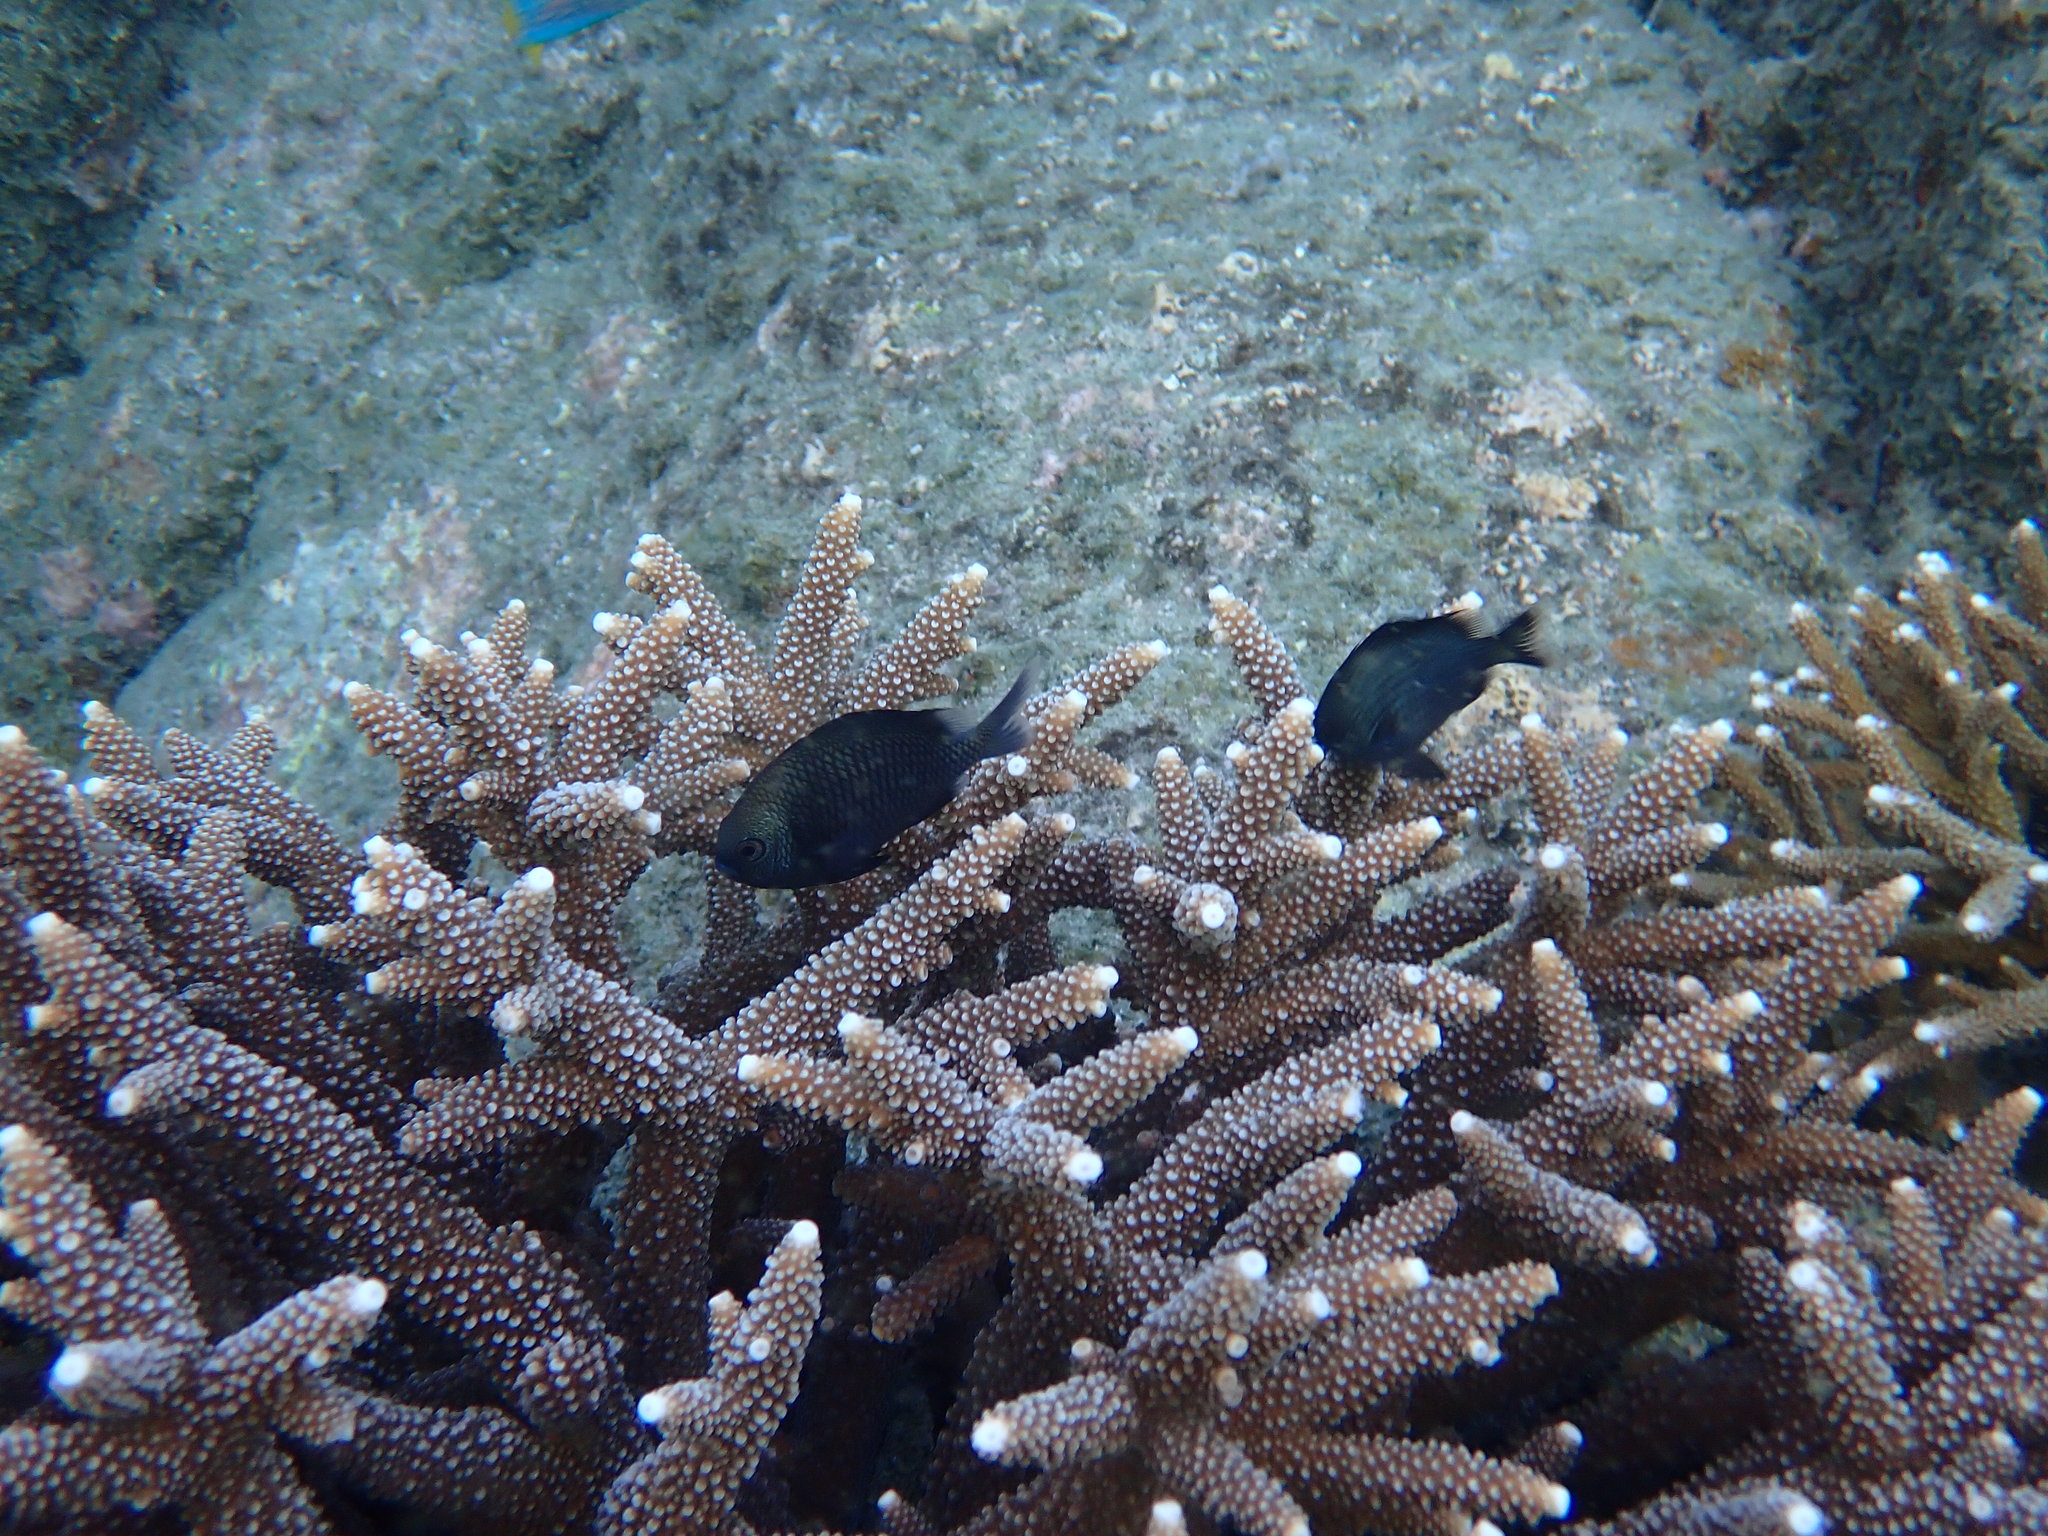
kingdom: Animalia
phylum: Chordata
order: Perciformes
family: Pomacentridae
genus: Dascyllus
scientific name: Dascyllus reticulatus
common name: Reticulated dascyllus
